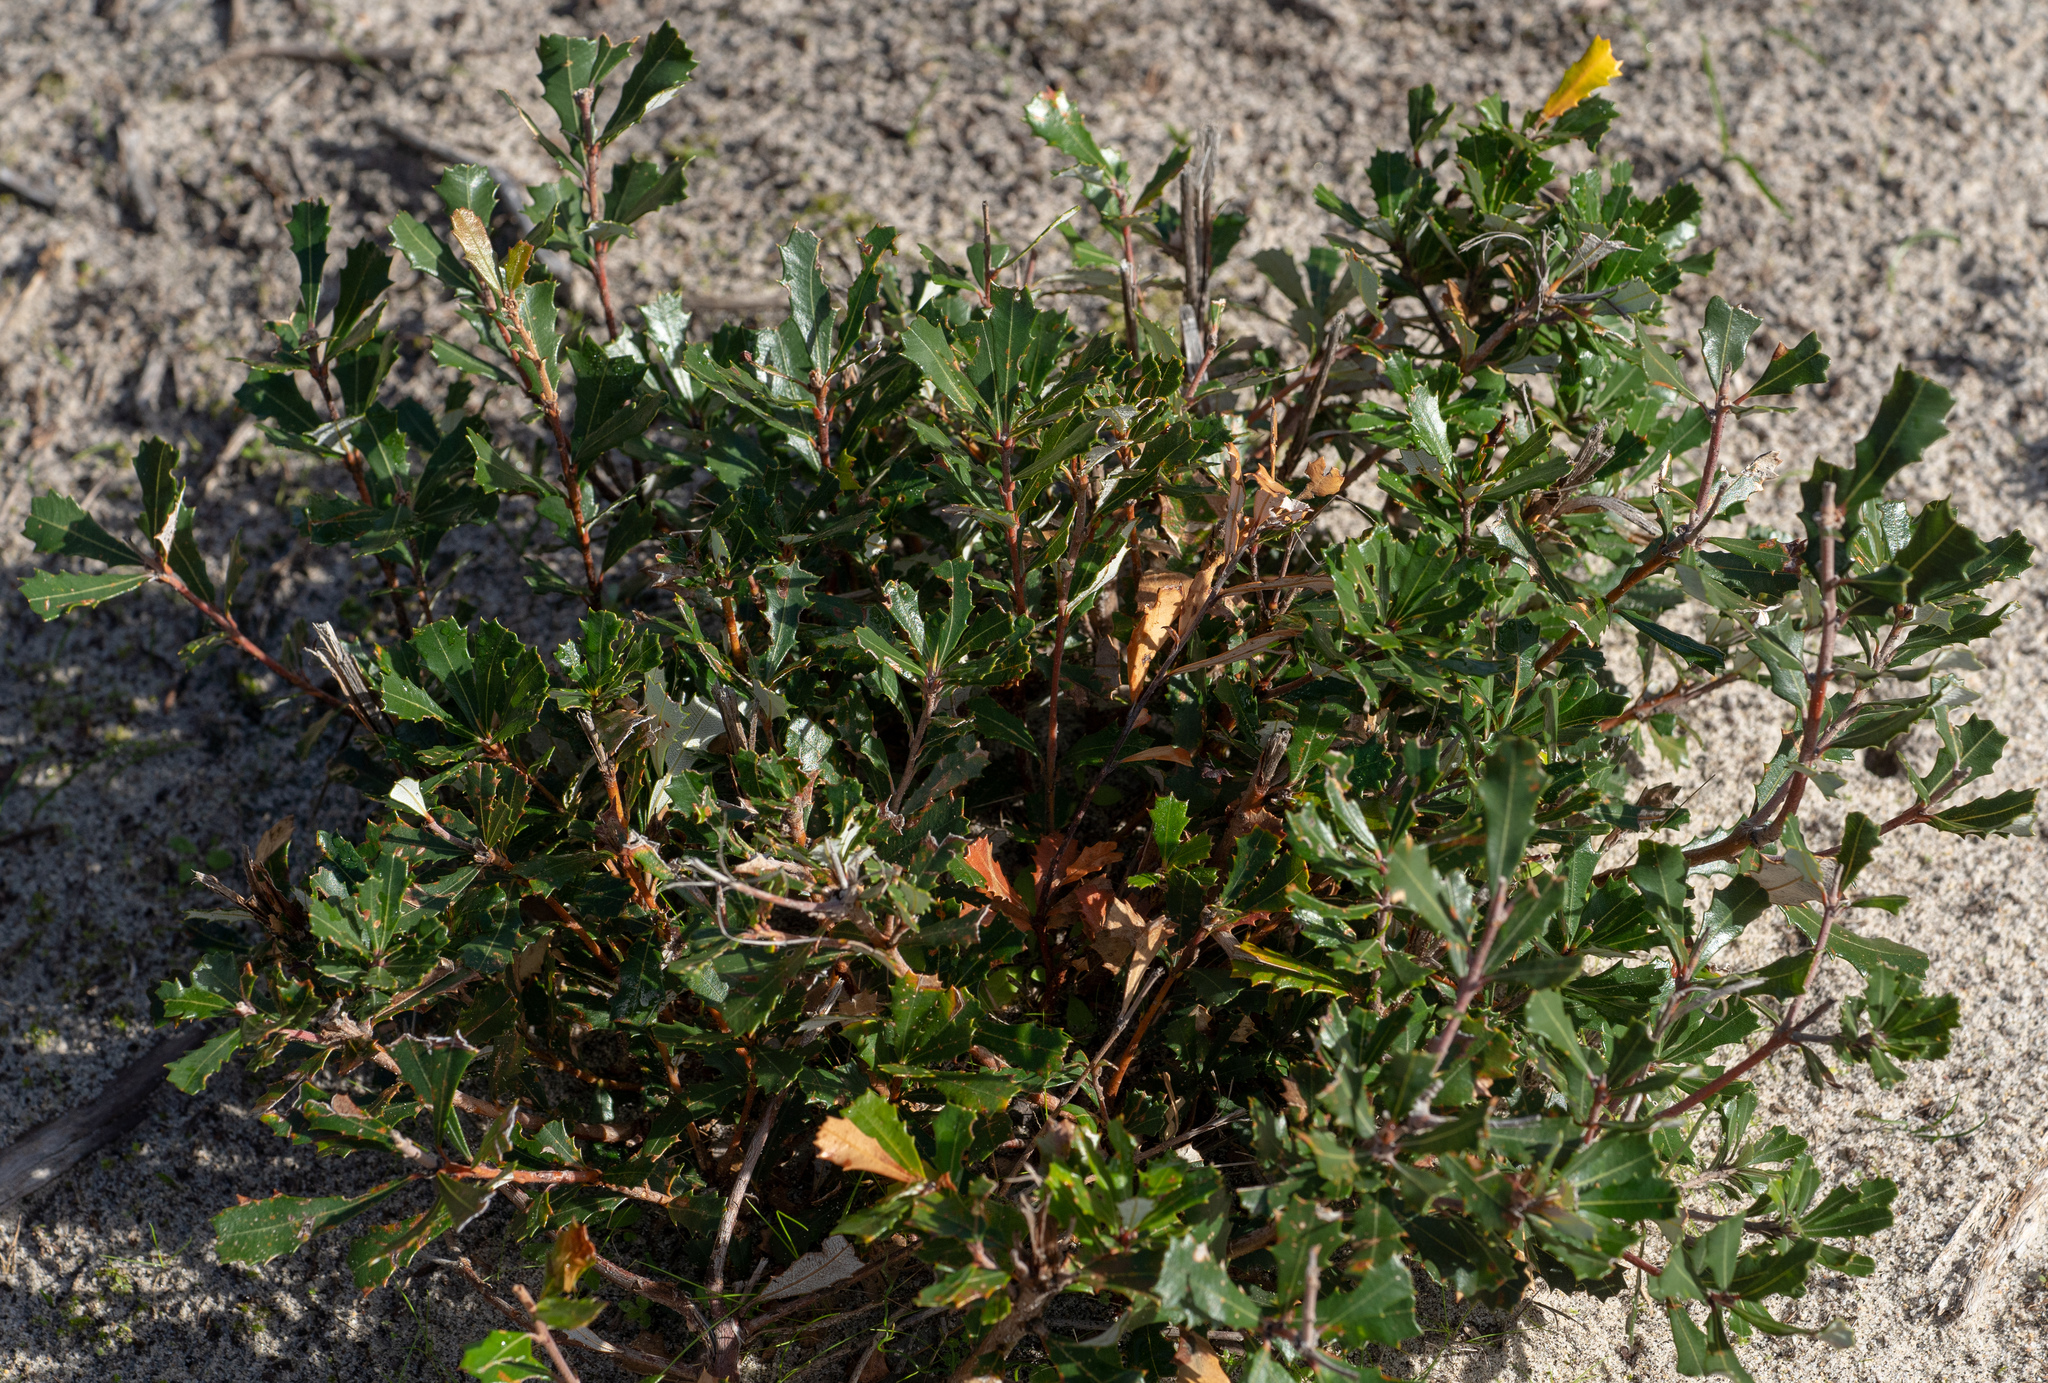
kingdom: Plantae
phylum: Tracheophyta
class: Magnoliopsida
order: Proteales
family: Proteaceae
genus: Banksia
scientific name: Banksia marginata
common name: Silver banksia
